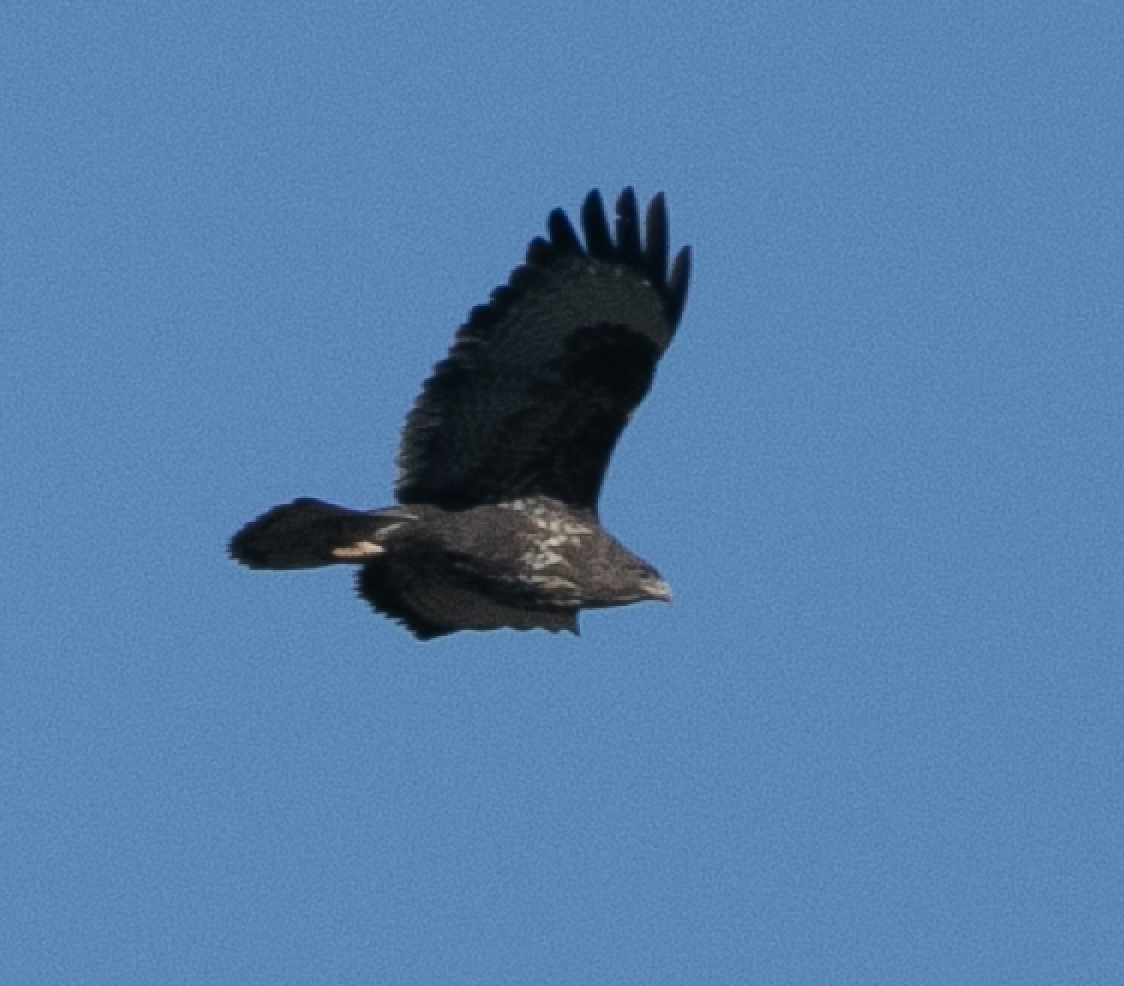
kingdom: Animalia
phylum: Chordata
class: Aves
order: Accipitriformes
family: Accipitridae
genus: Buteo
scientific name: Buteo buteo
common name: Common buzzard
